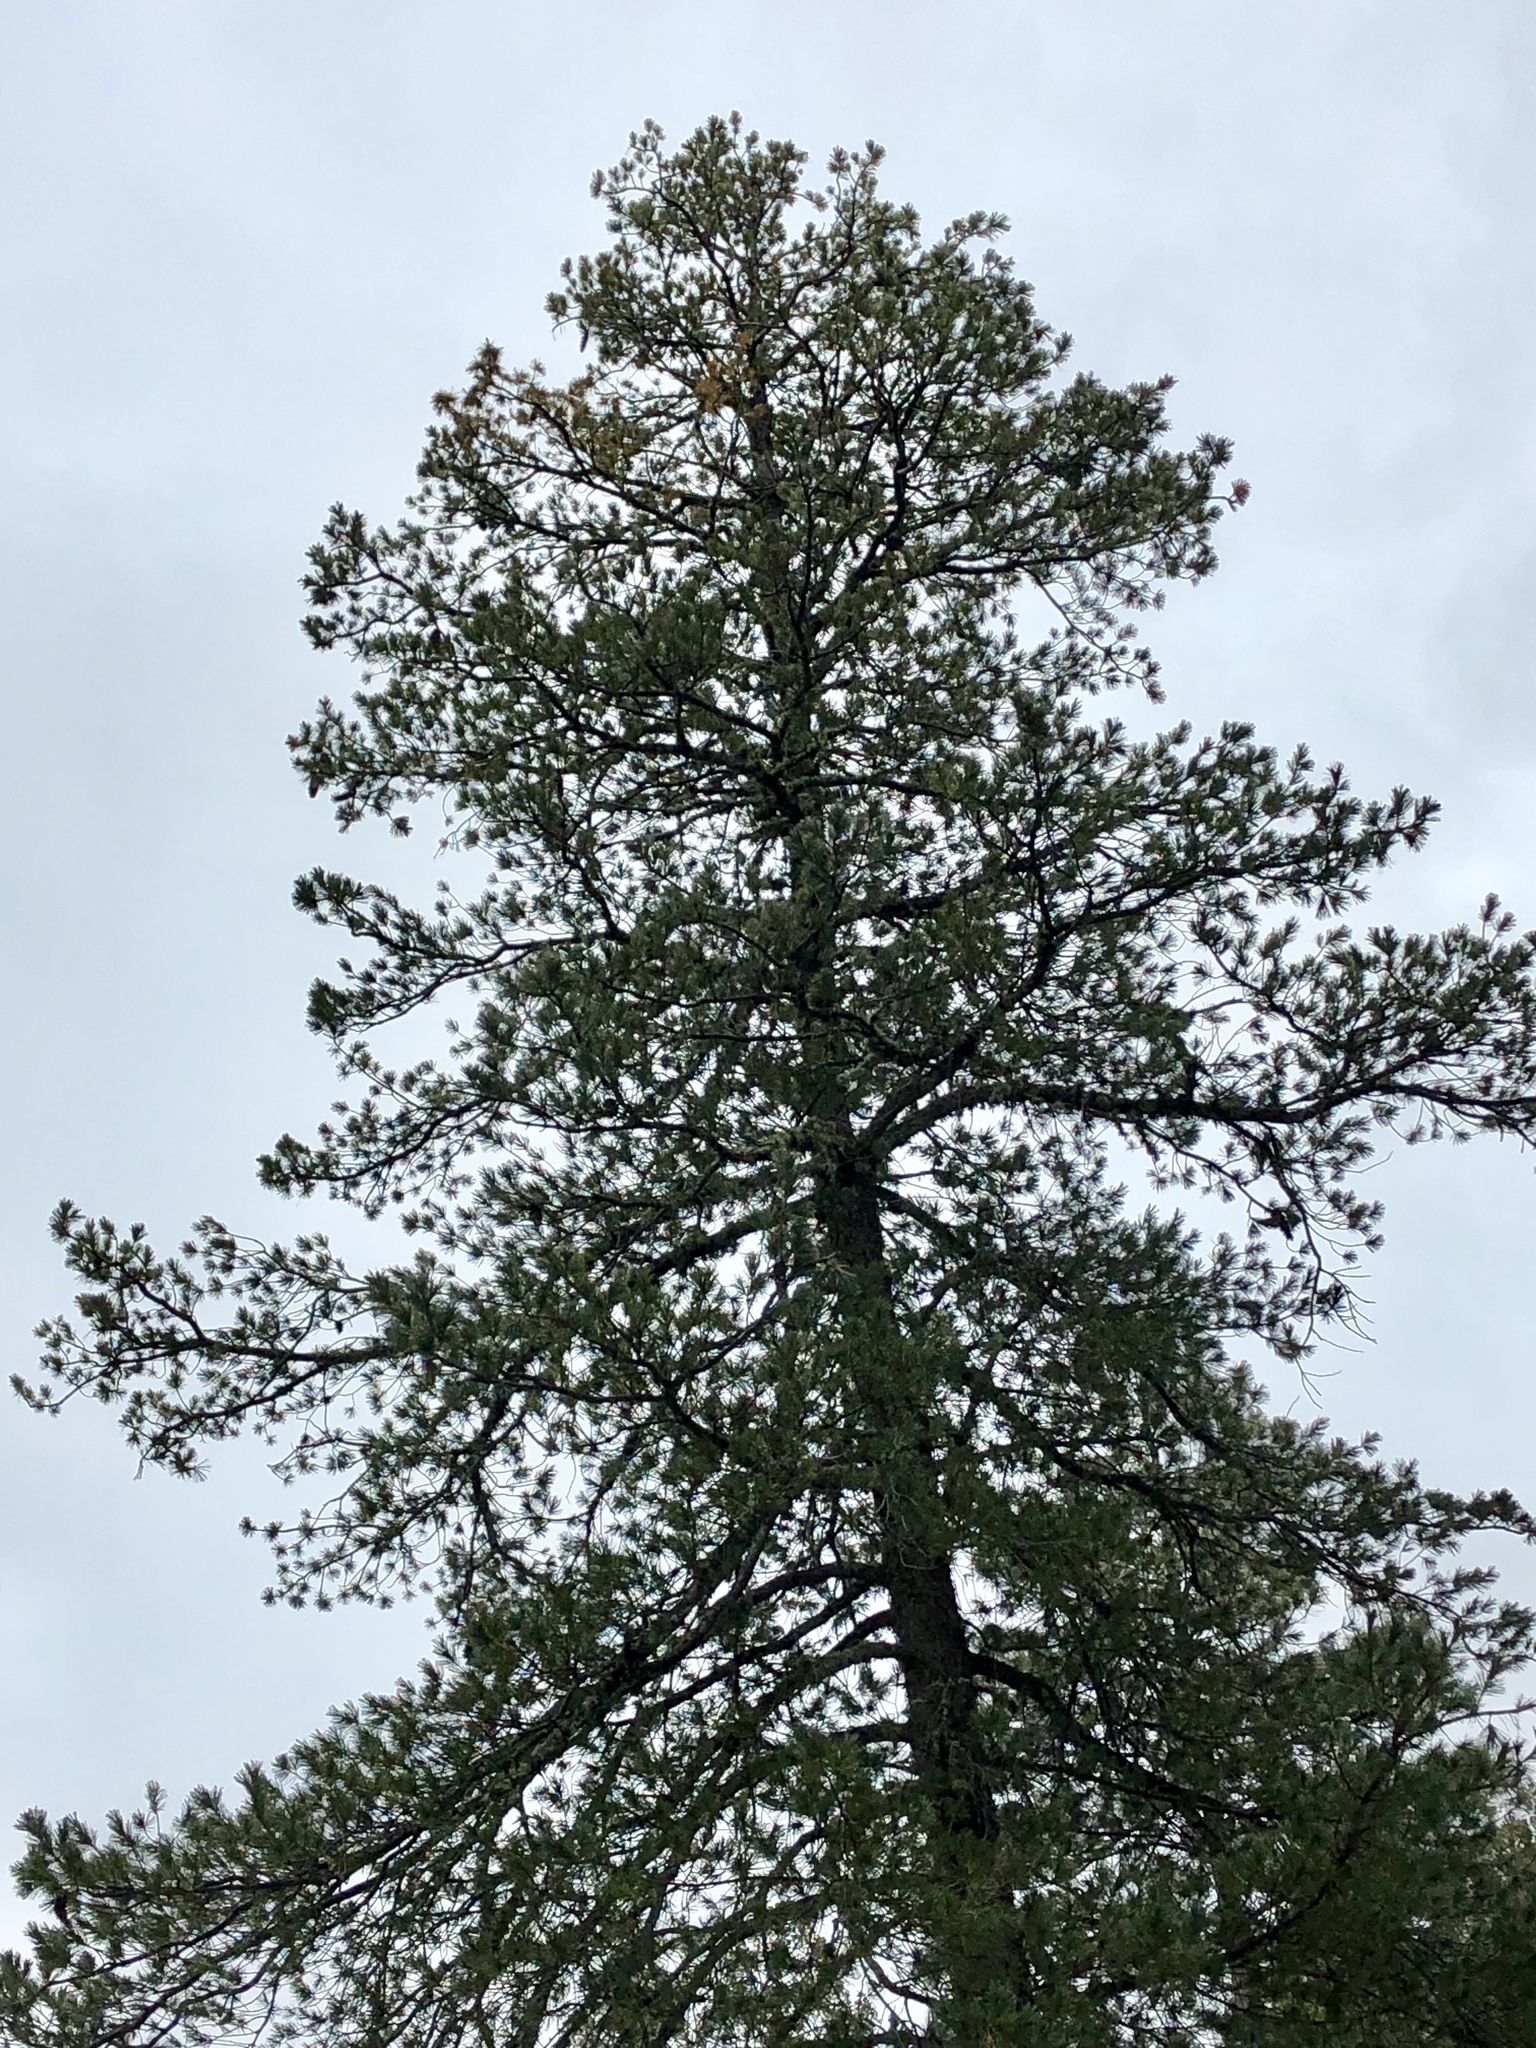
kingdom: Plantae
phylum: Tracheophyta
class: Pinopsida
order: Pinales
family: Pinaceae
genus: Pinus
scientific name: Pinus strobiformis
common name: Southwestern white pine
